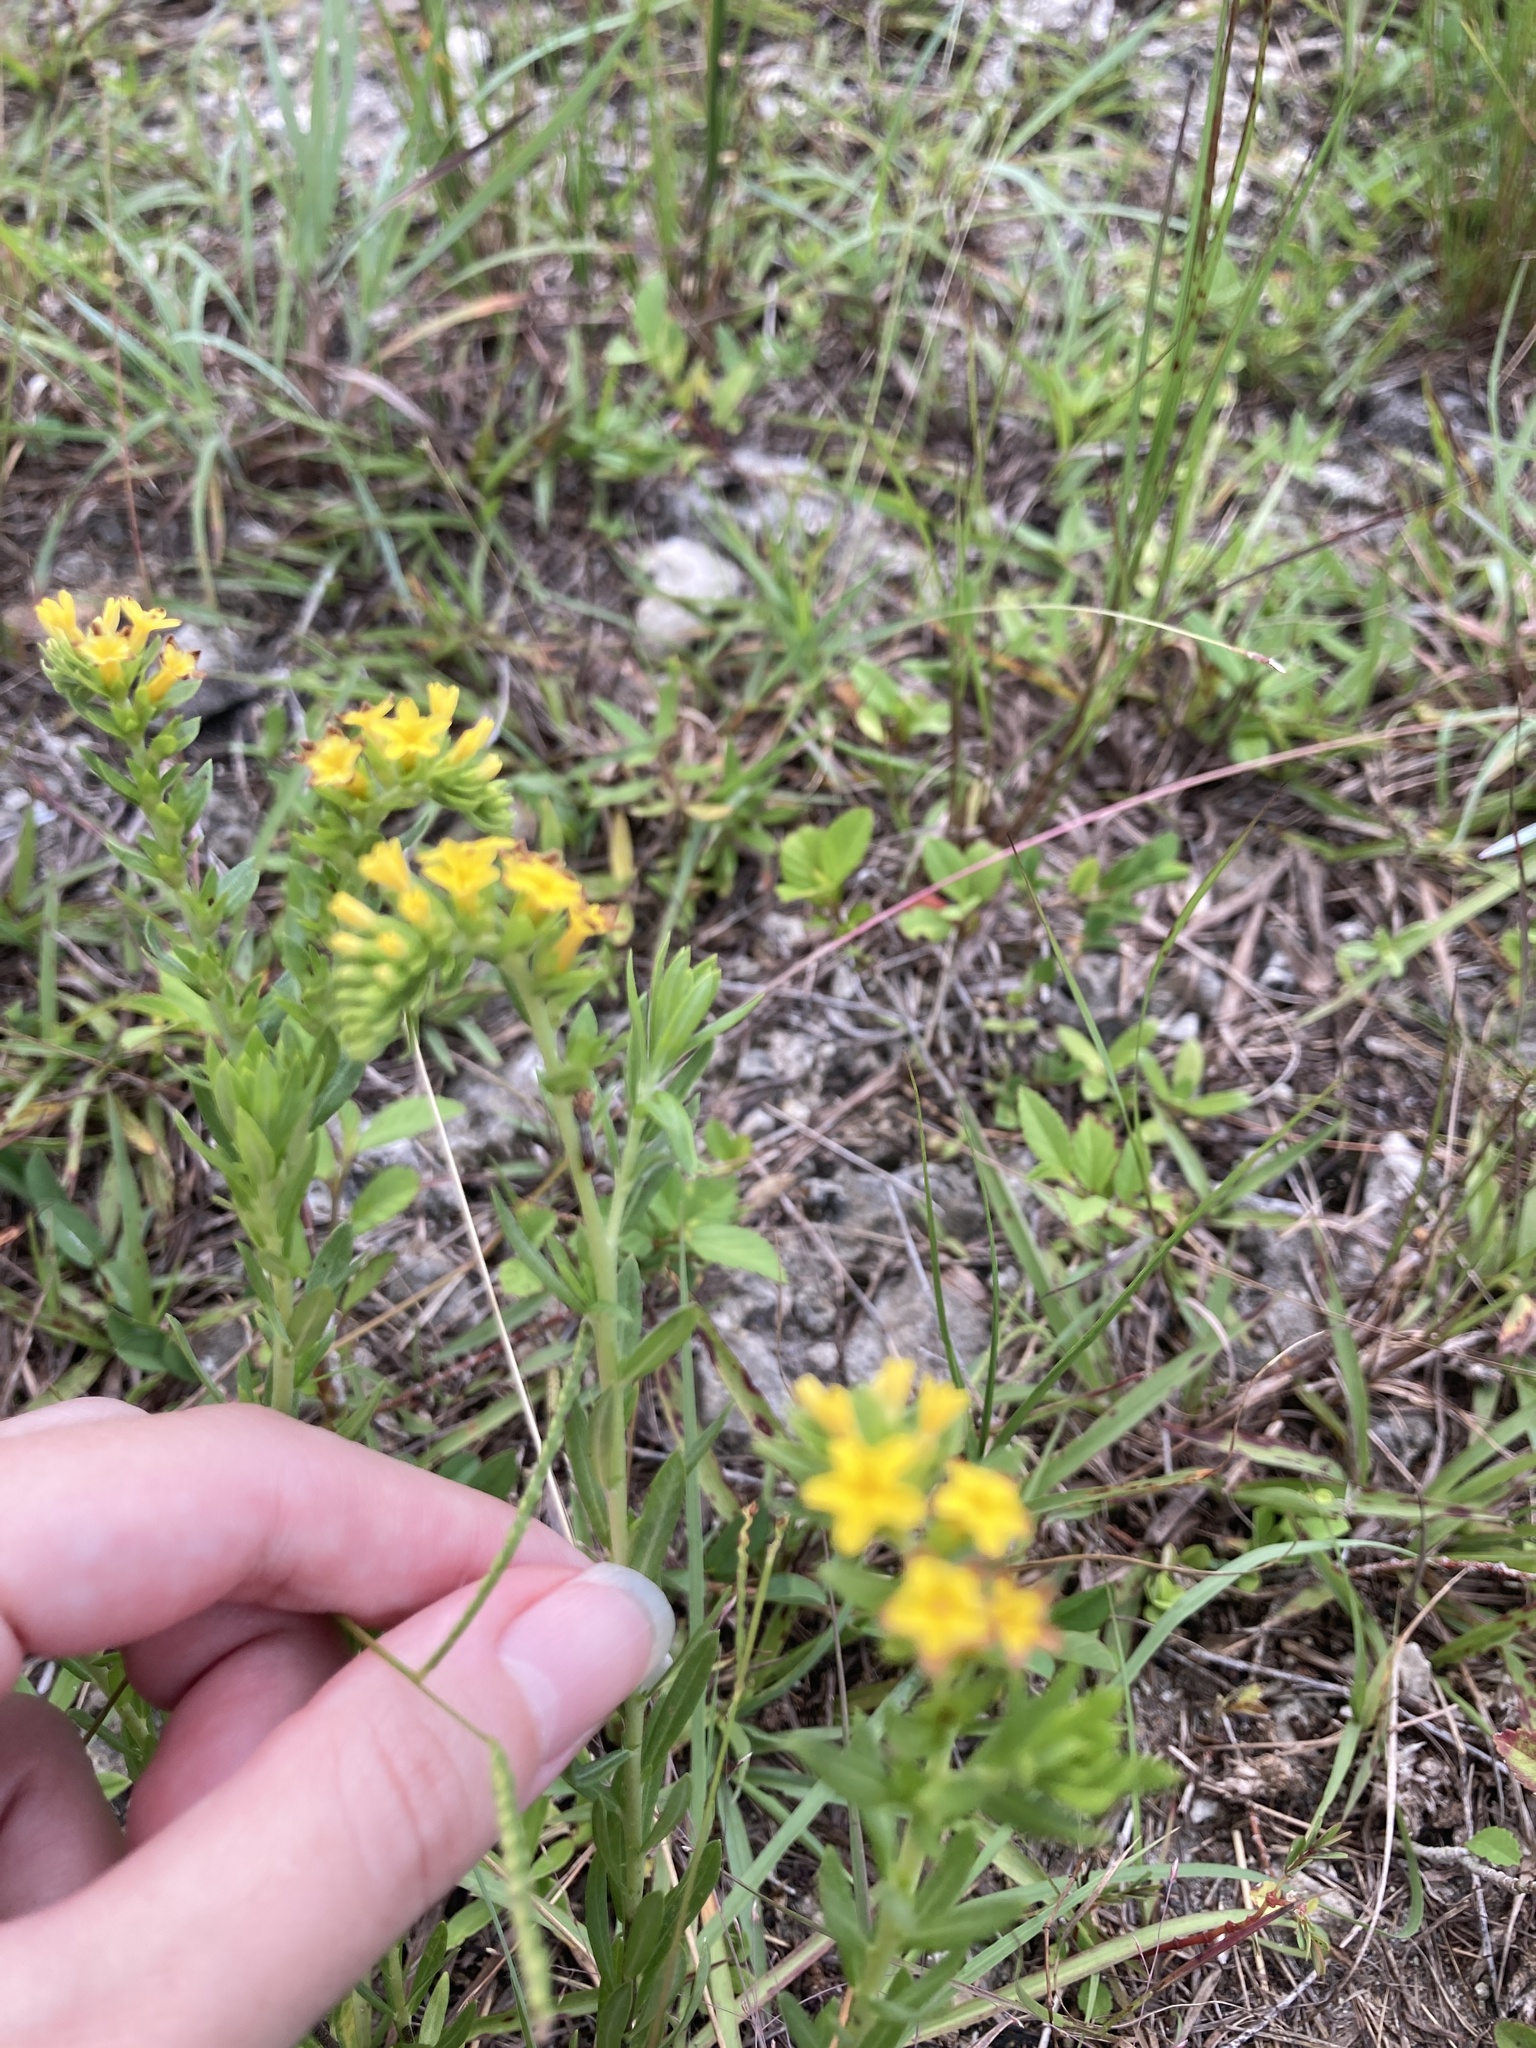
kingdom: Plantae
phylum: Tracheophyta
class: Magnoliopsida
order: Boraginales
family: Heliotropiaceae
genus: Euploca
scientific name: Euploca polyphylla
